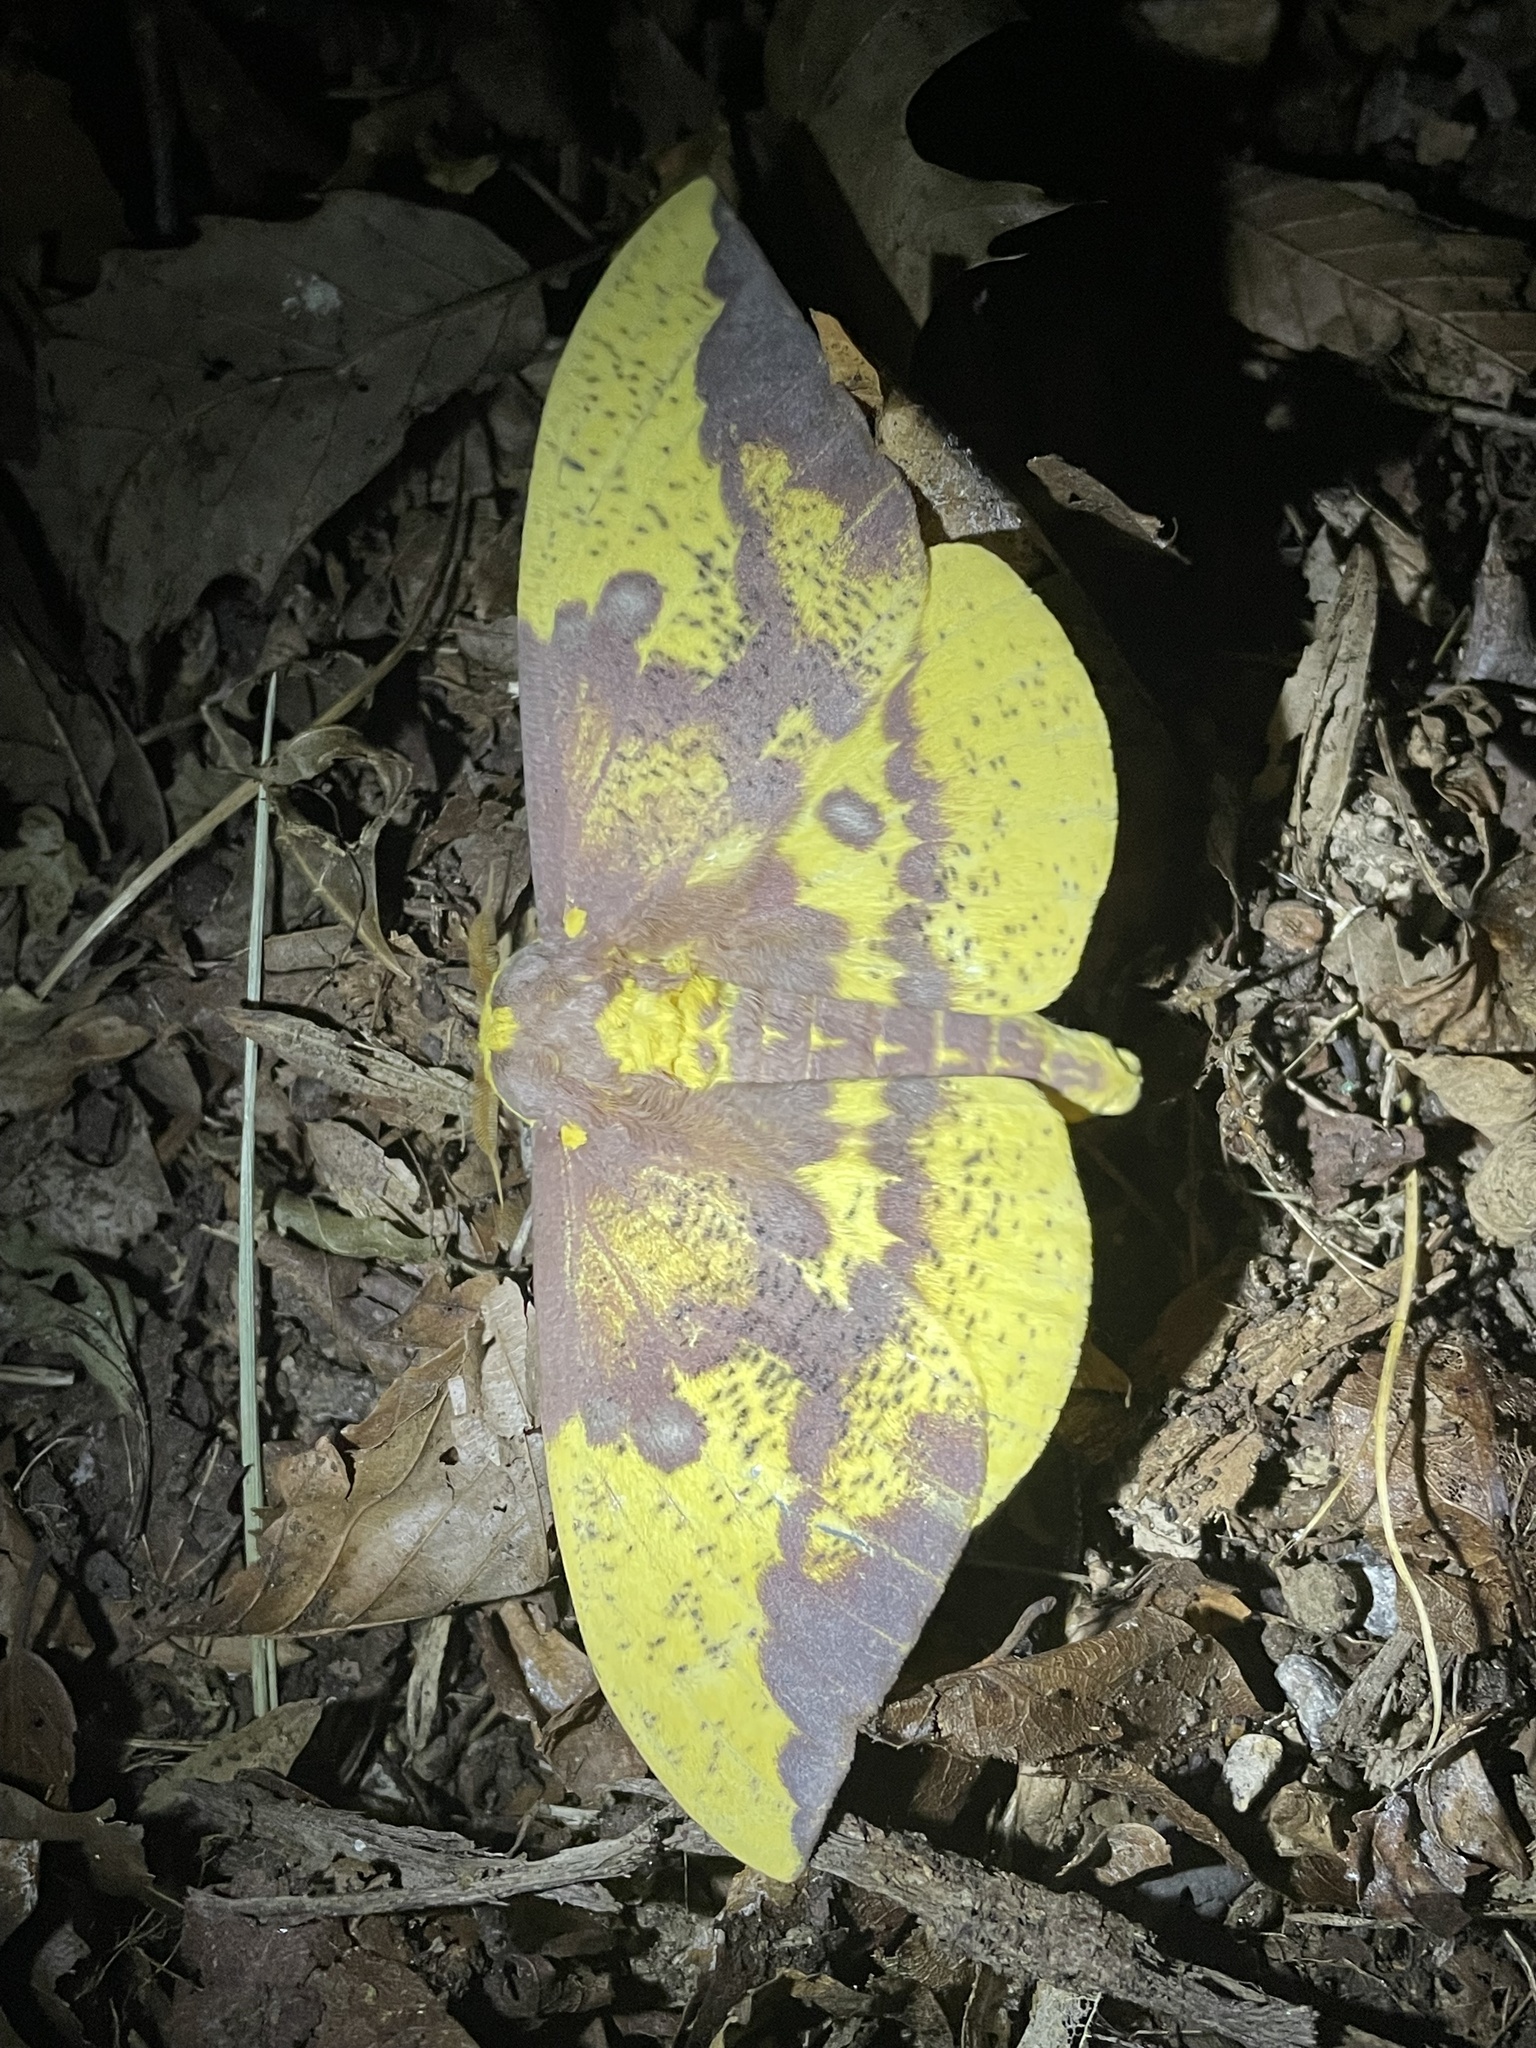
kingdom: Animalia
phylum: Arthropoda
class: Insecta
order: Lepidoptera
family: Saturniidae
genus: Eacles
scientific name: Eacles imperialis
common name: Imperial moth
